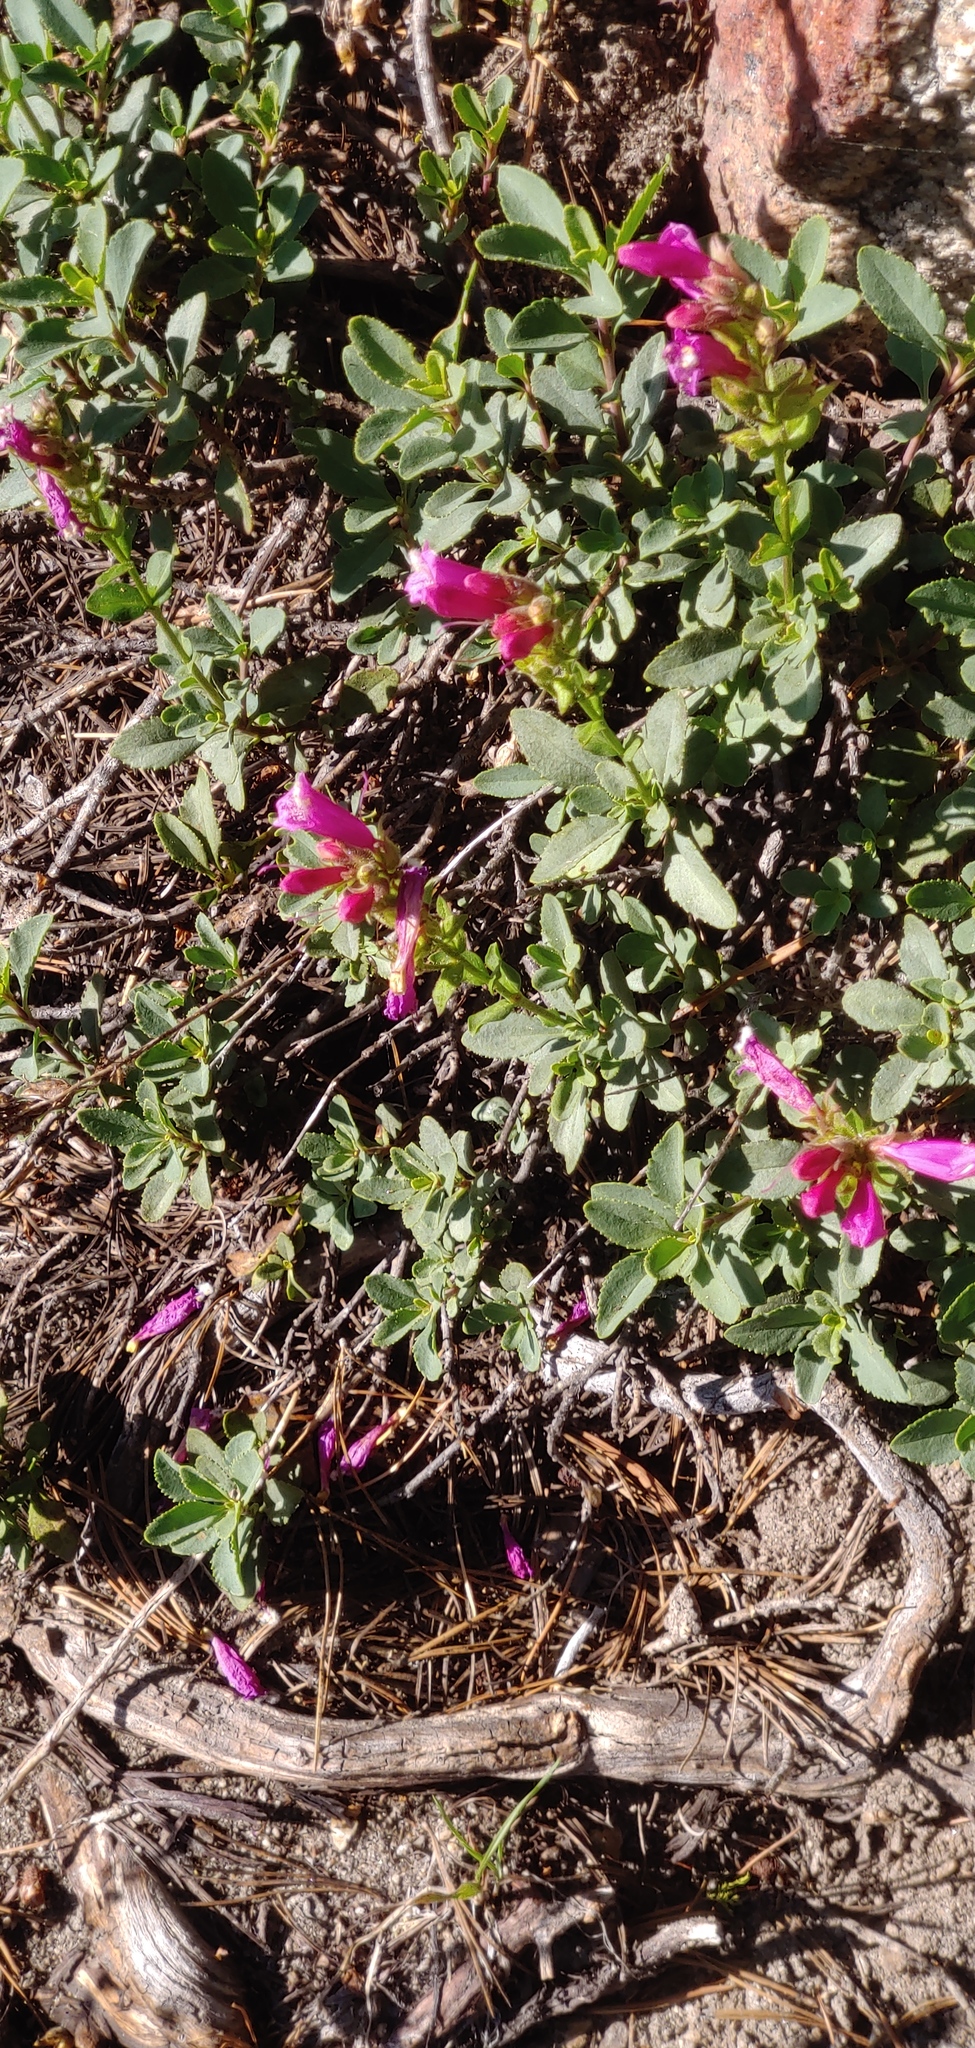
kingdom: Plantae
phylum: Tracheophyta
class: Magnoliopsida
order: Lamiales
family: Plantaginaceae
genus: Penstemon
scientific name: Penstemon newberryi
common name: Mountain-pride
